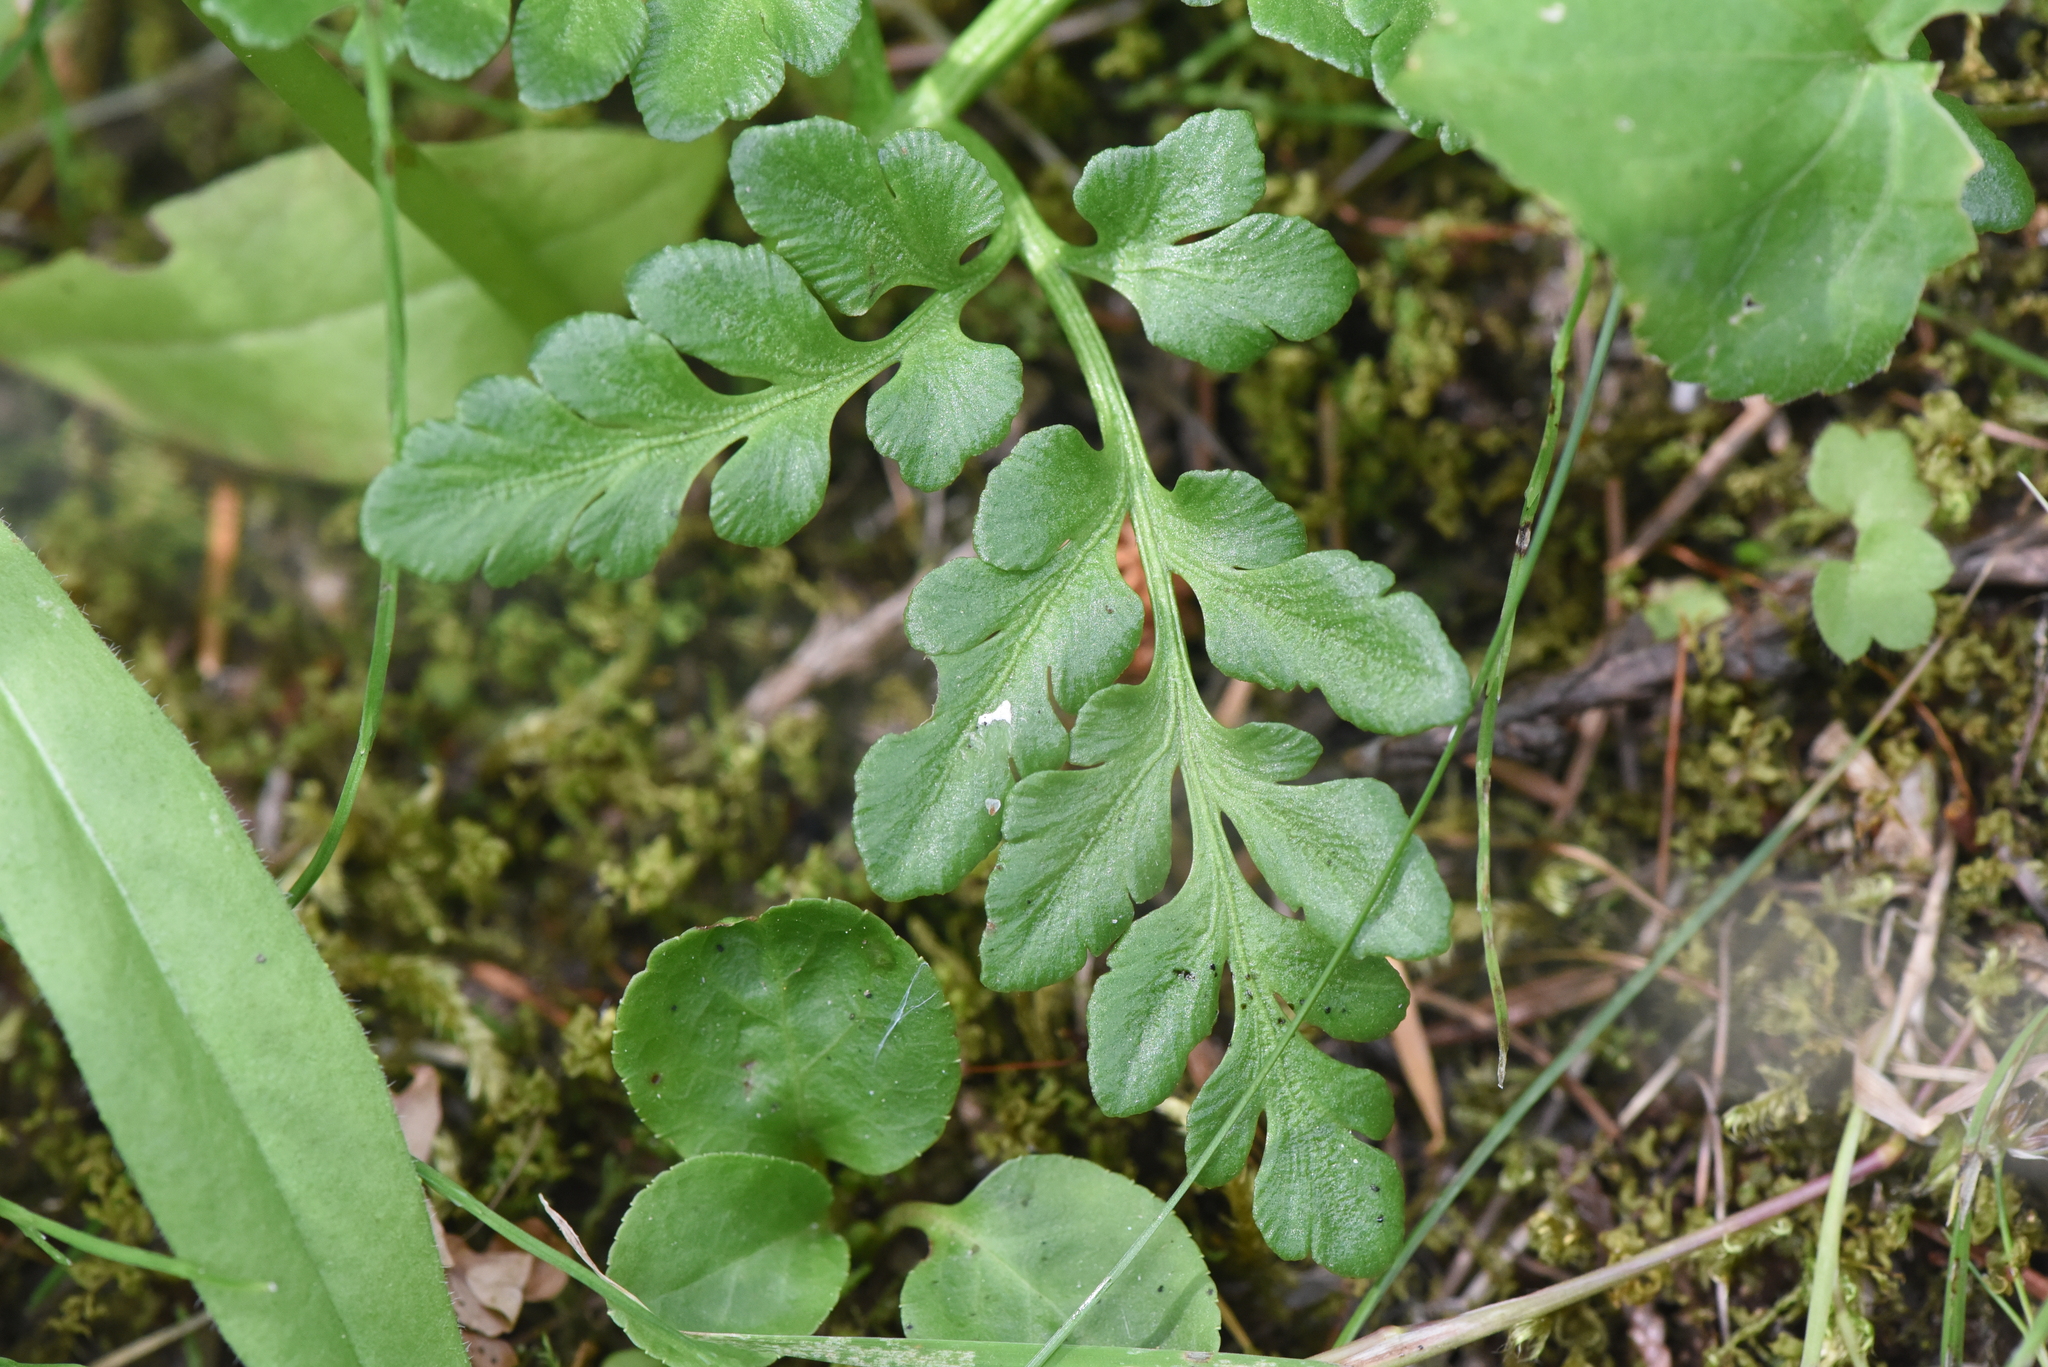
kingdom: Plantae
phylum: Tracheophyta
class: Polypodiopsida
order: Ophioglossales
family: Ophioglossaceae
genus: Sceptridium
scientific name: Sceptridium multifidum
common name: Leathery grape fern
